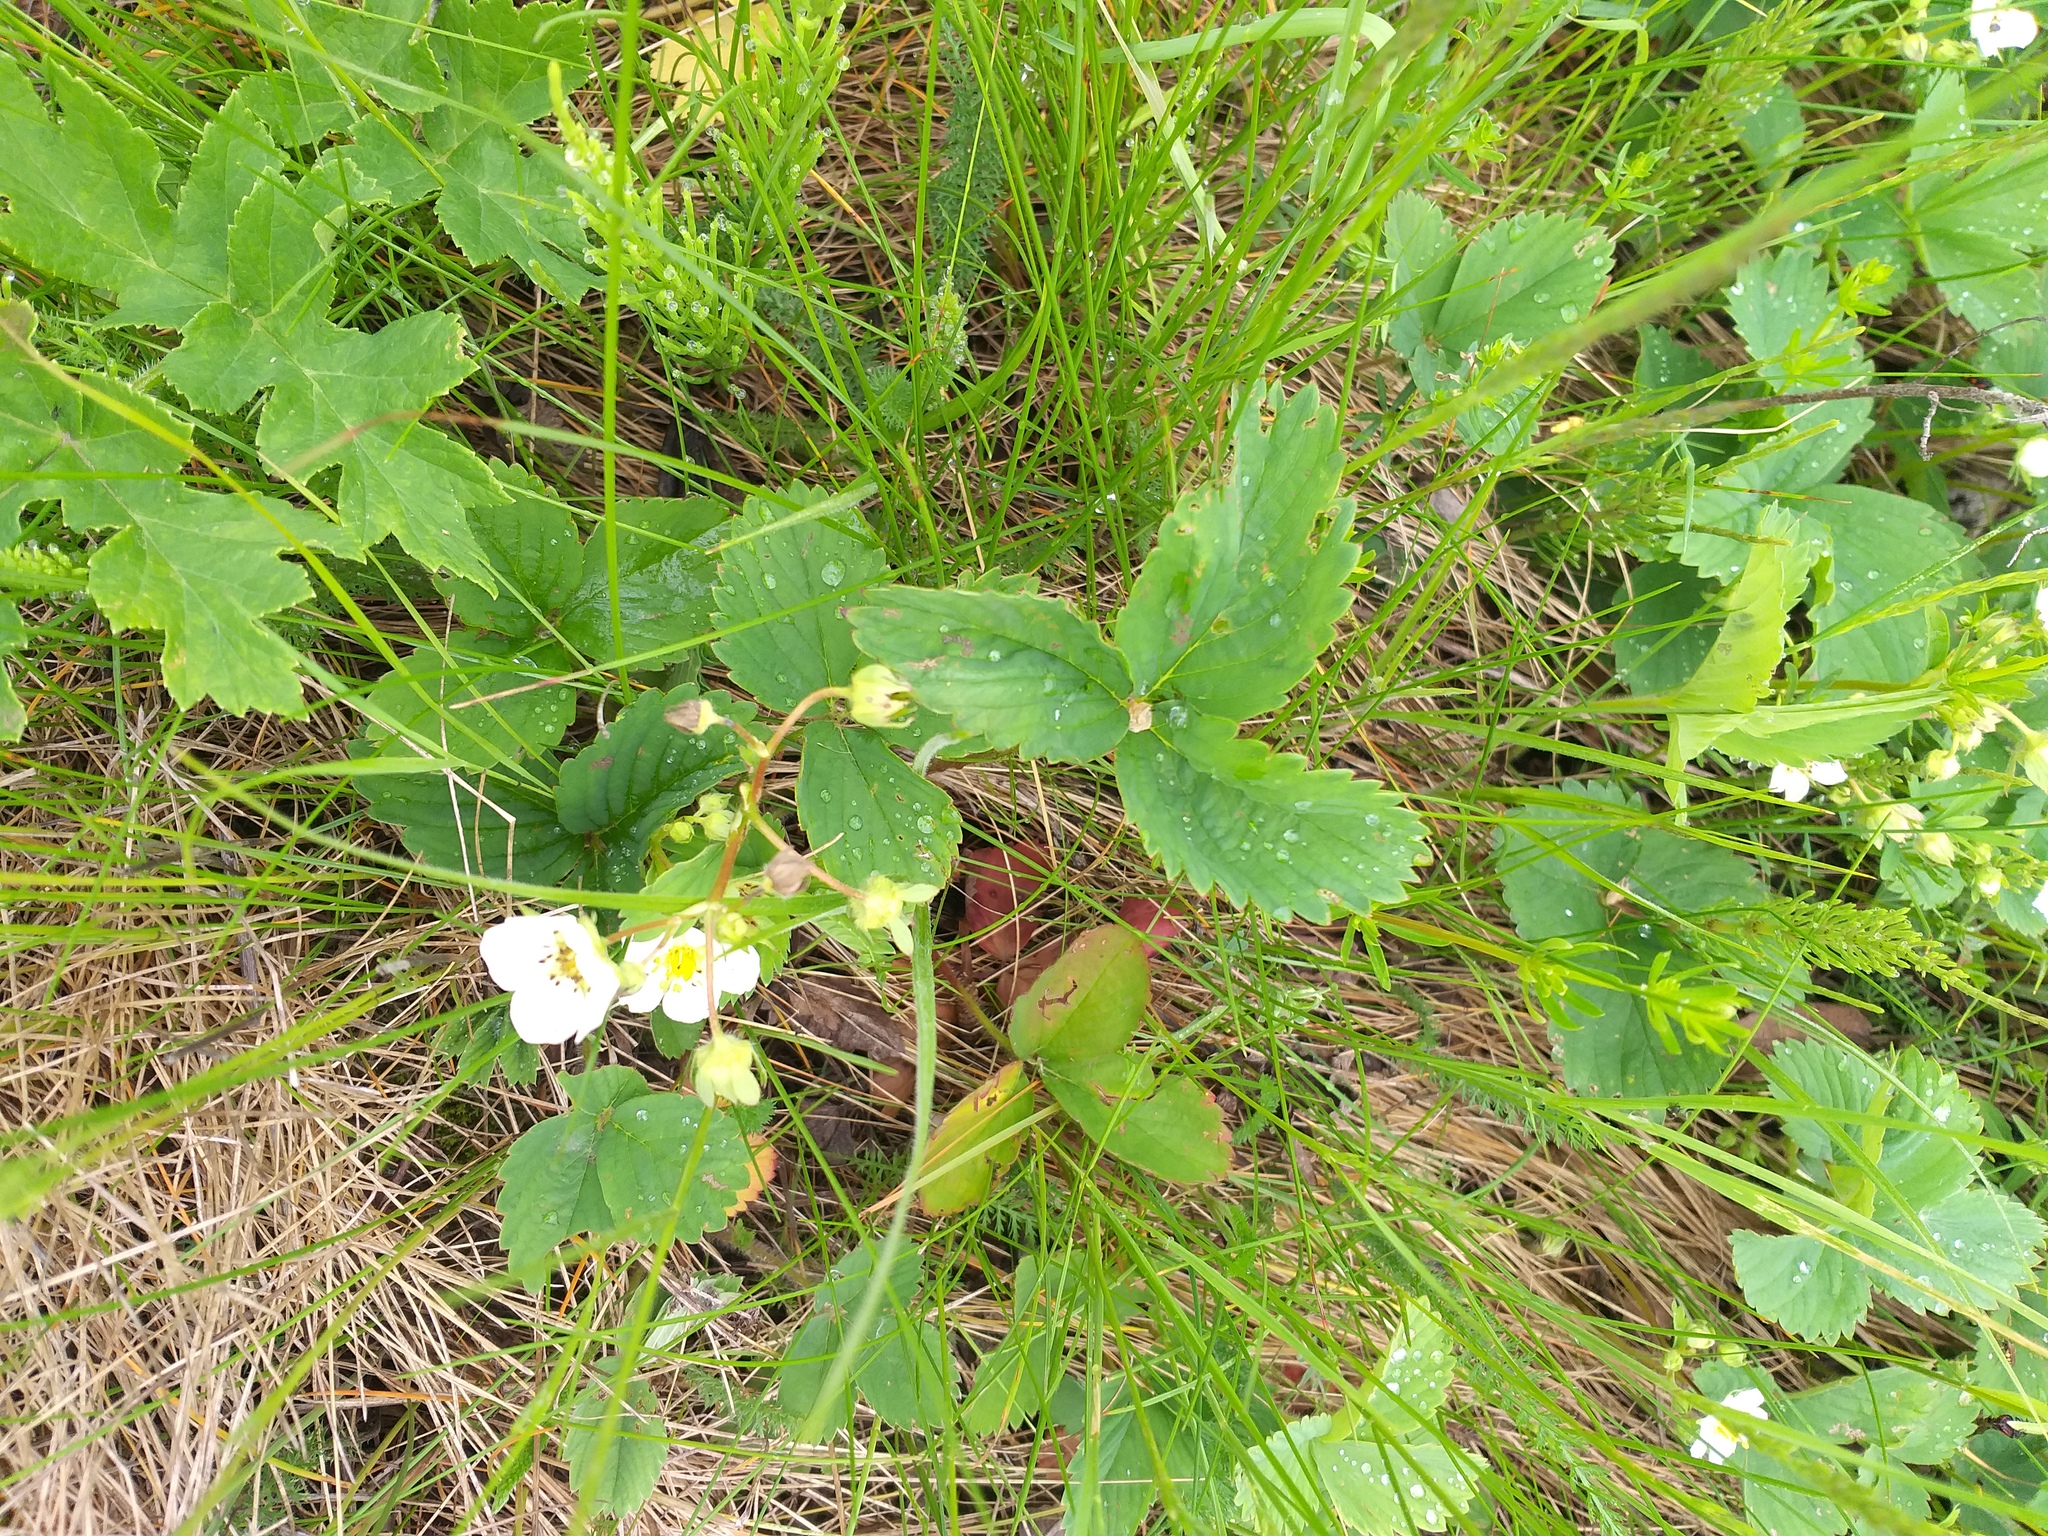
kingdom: Plantae
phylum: Tracheophyta
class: Magnoliopsida
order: Rosales
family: Rosaceae
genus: Fragaria
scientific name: Fragaria ananassa
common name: Garden strawberry
